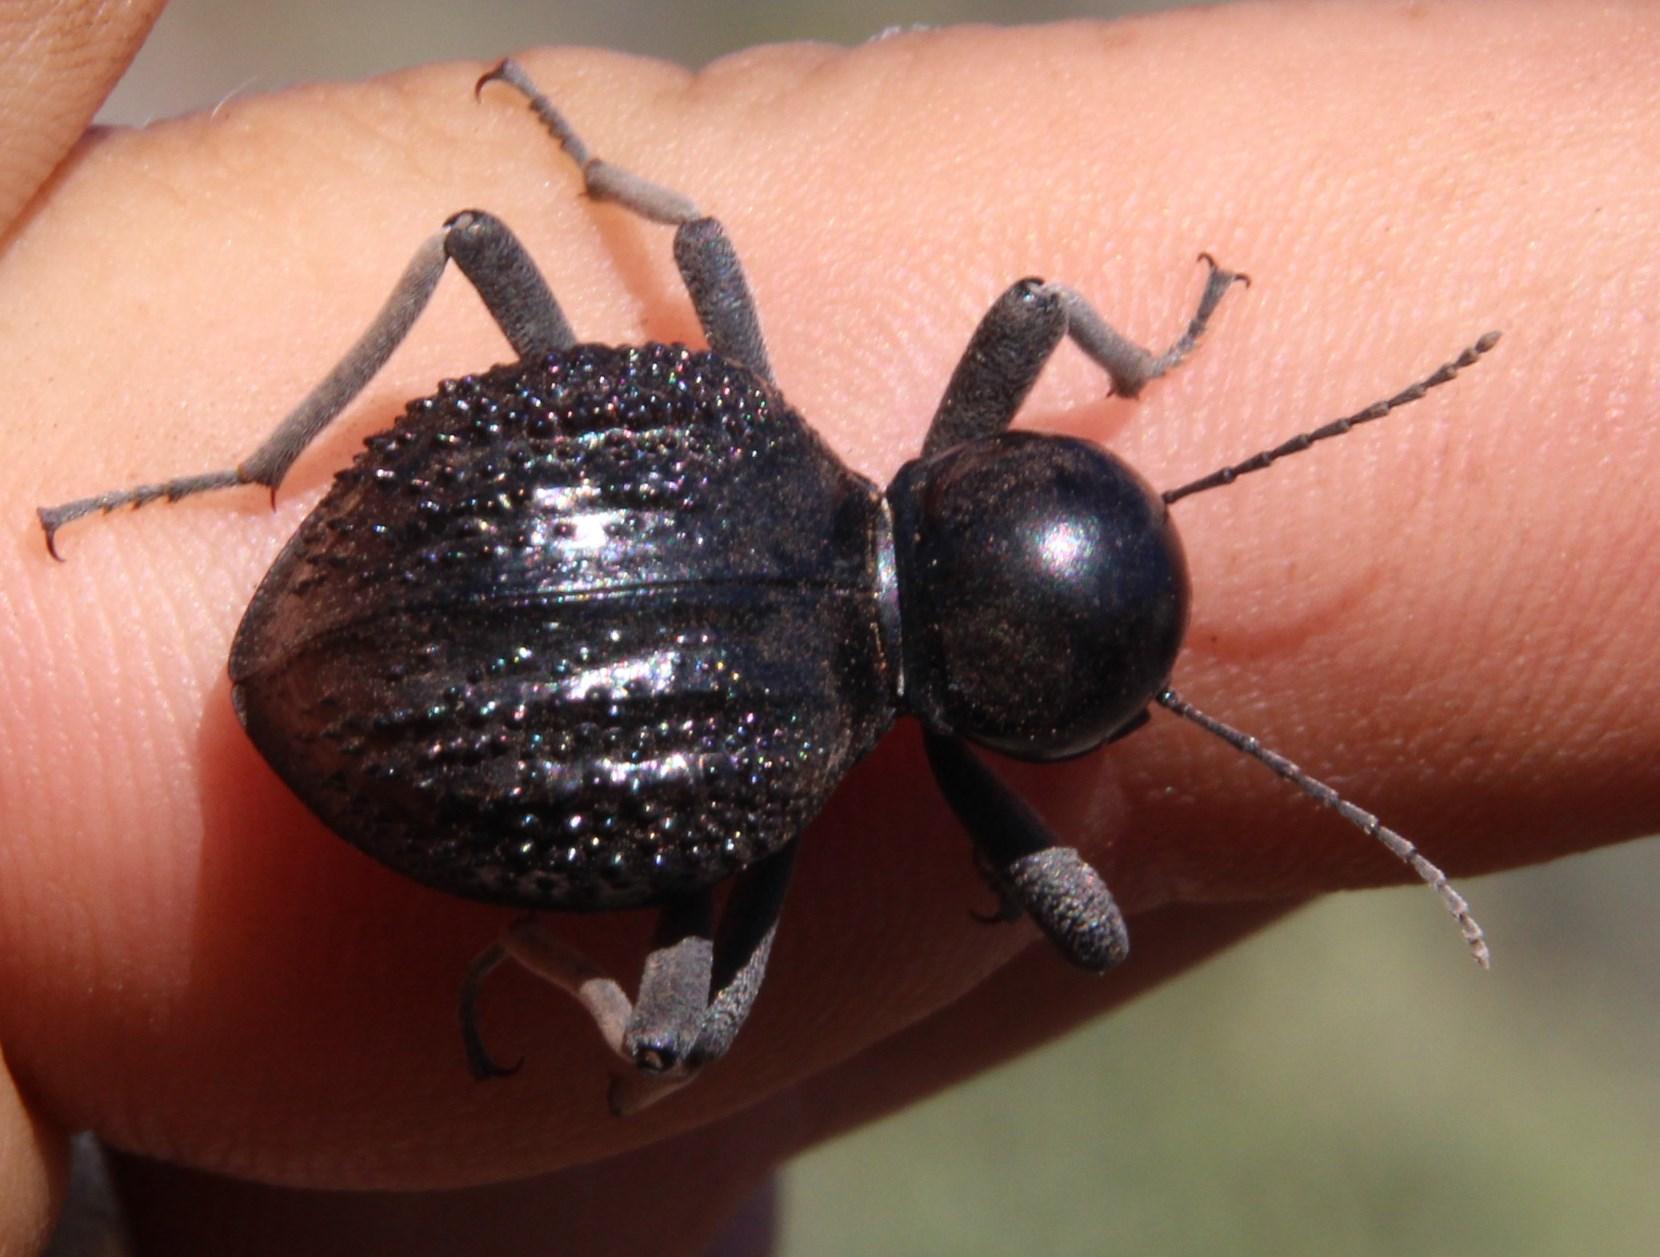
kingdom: Animalia
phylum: Arthropoda
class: Insecta
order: Coleoptera
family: Tenebrionidae
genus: Moluris
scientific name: Moluris semiscabra
